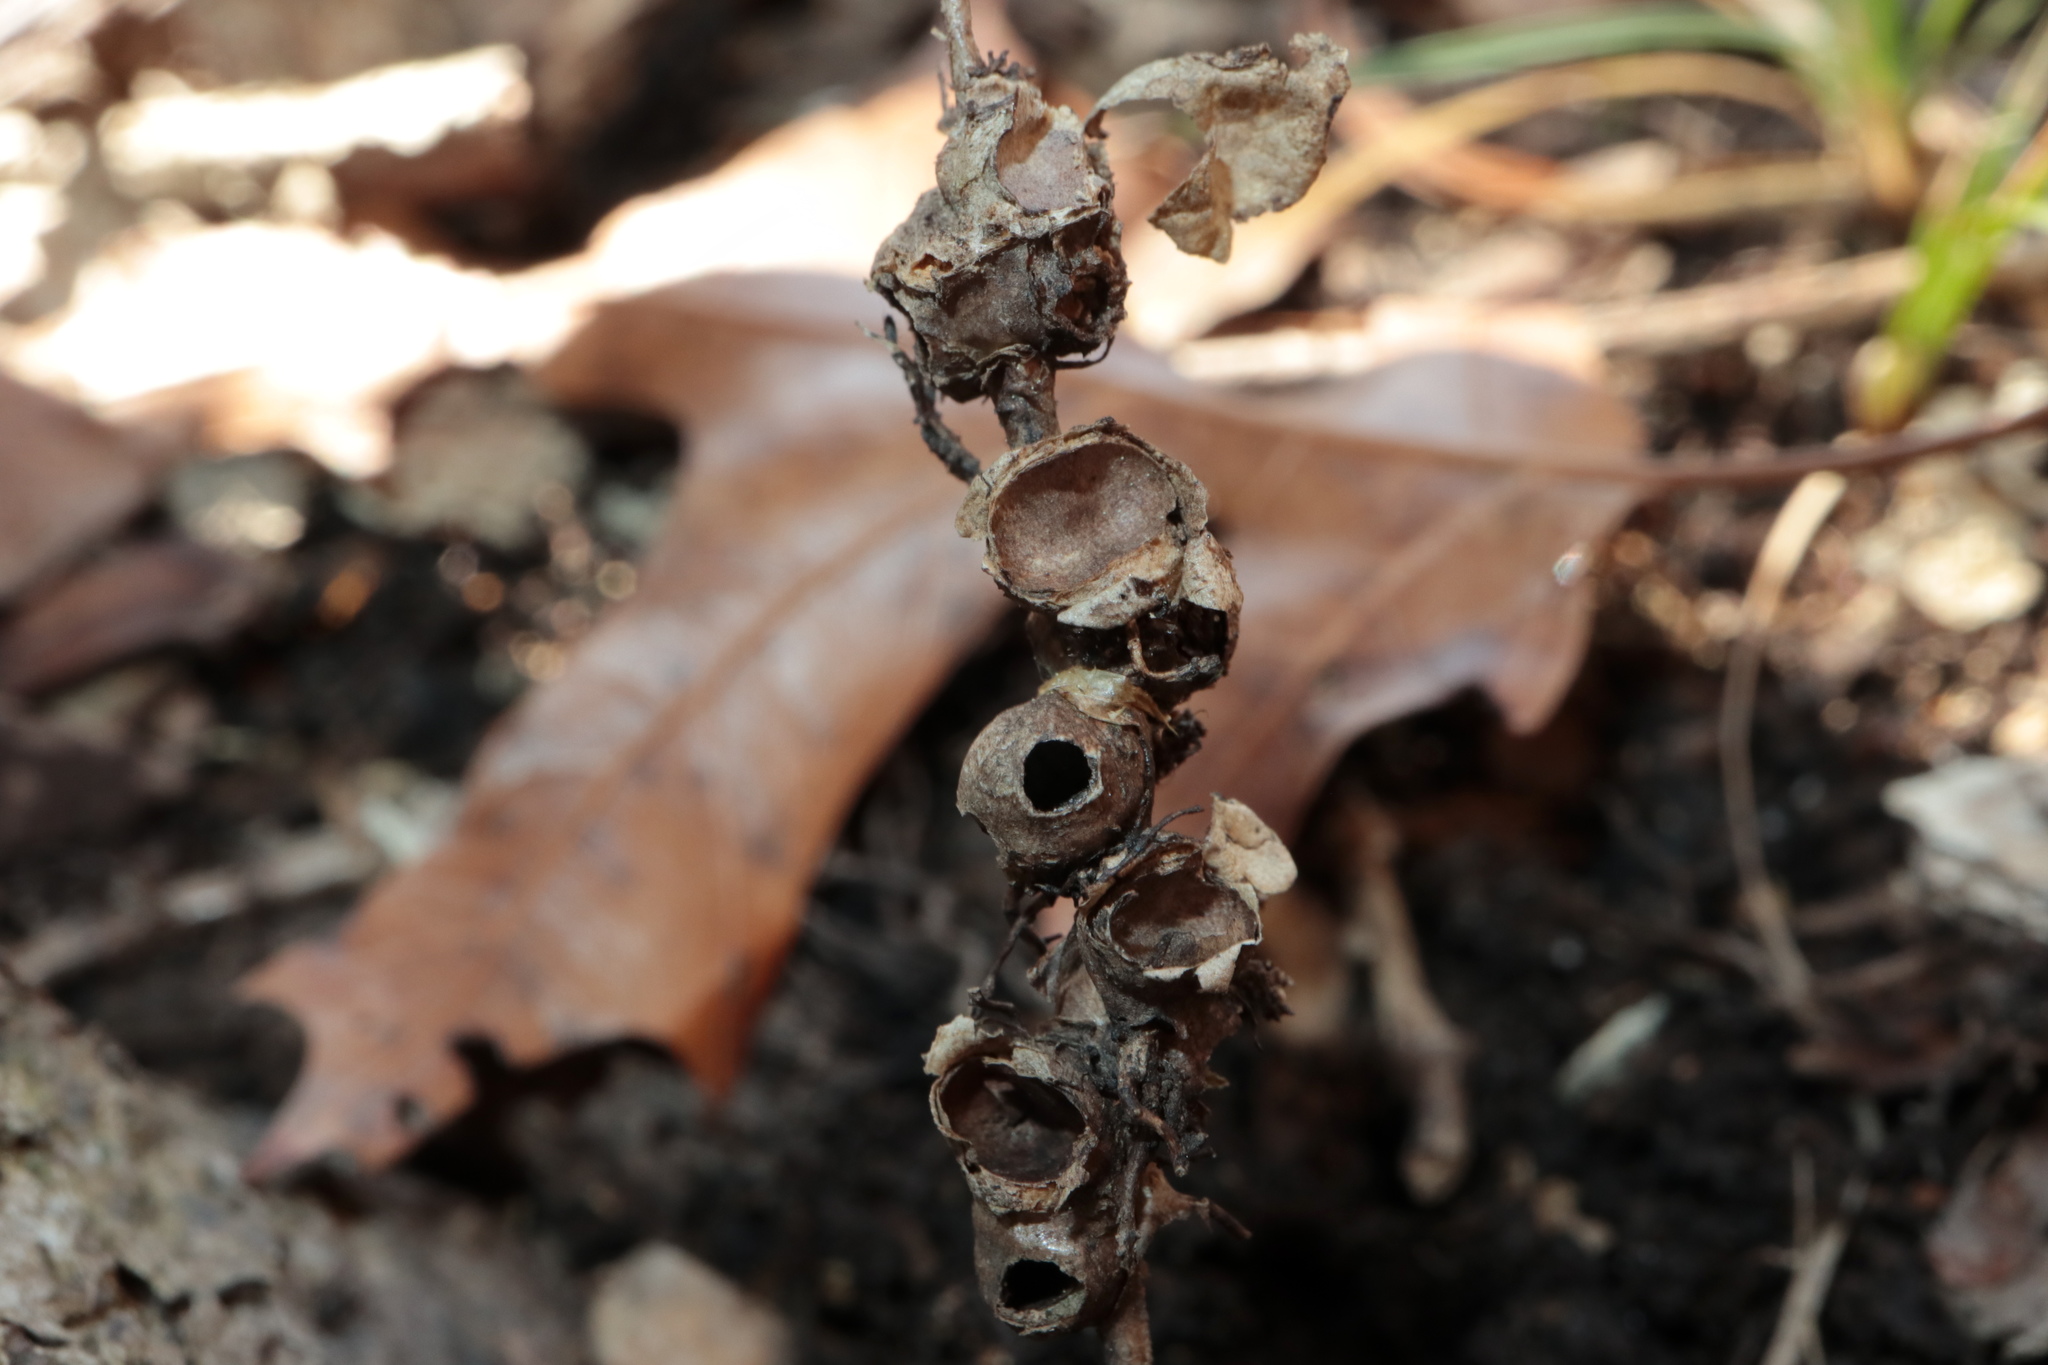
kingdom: Animalia
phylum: Arthropoda
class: Insecta
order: Hymenoptera
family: Cynipidae
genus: Callirhytis
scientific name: Callirhytis
